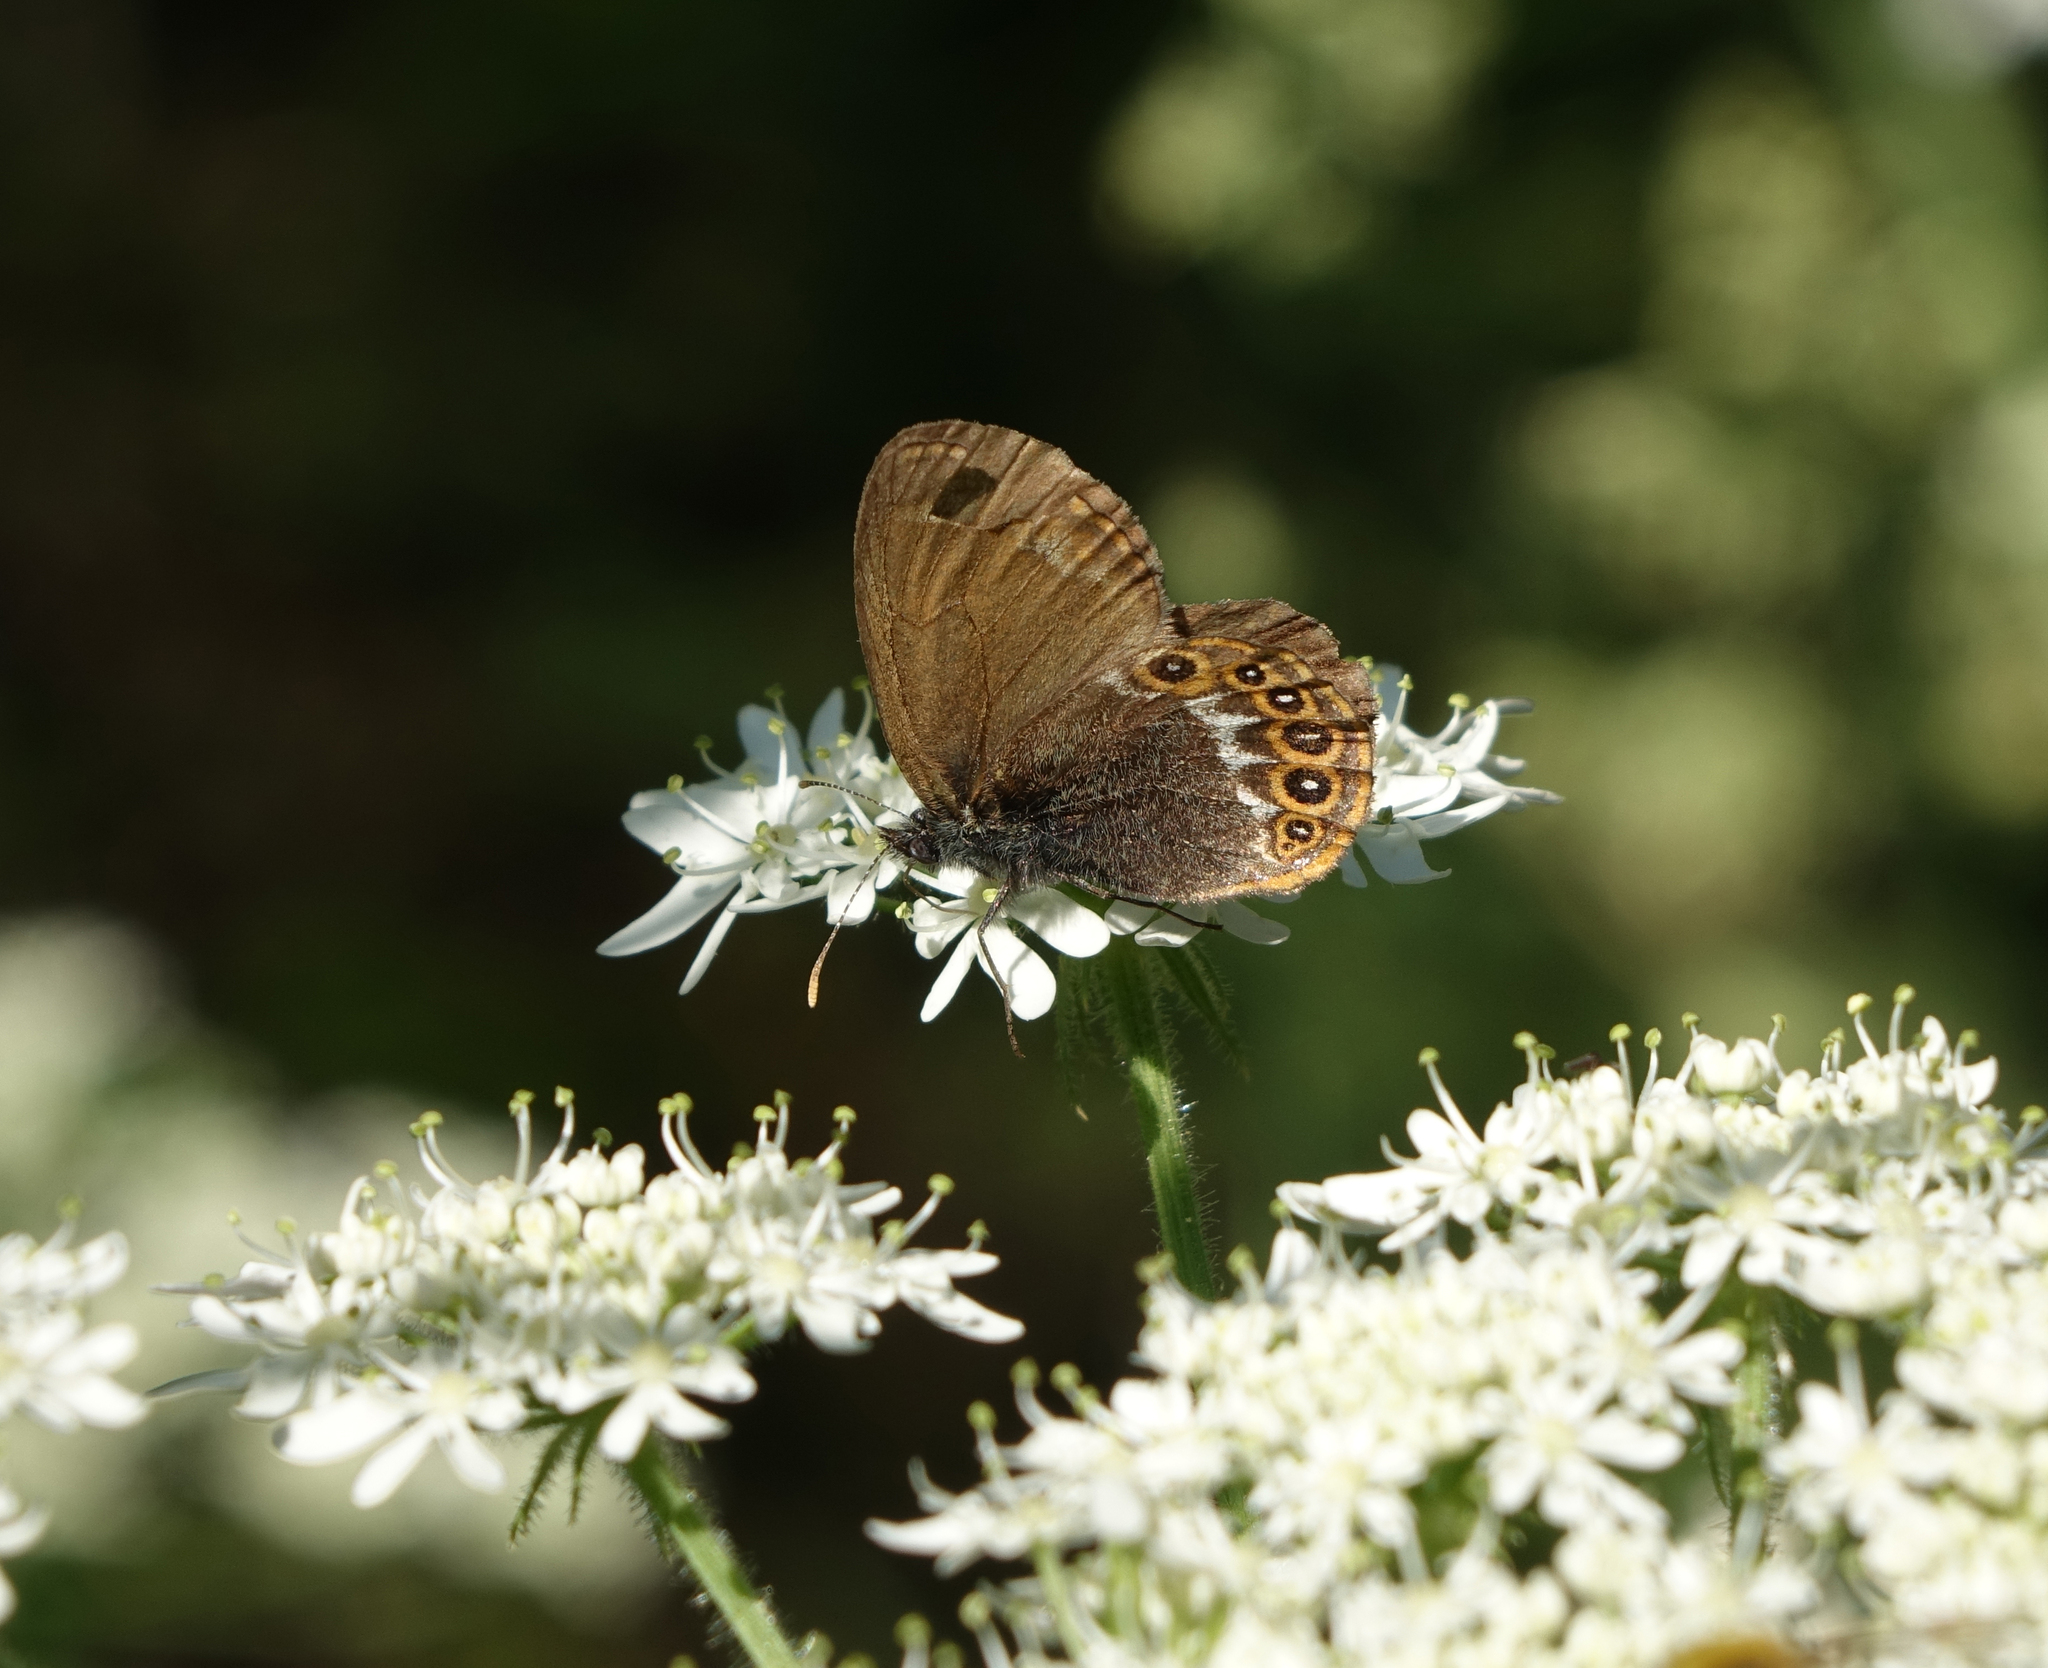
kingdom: Plantae
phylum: Tracheophyta
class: Magnoliopsida
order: Apiales
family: Apiaceae
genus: Heracleum
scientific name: Heracleum dissectum
